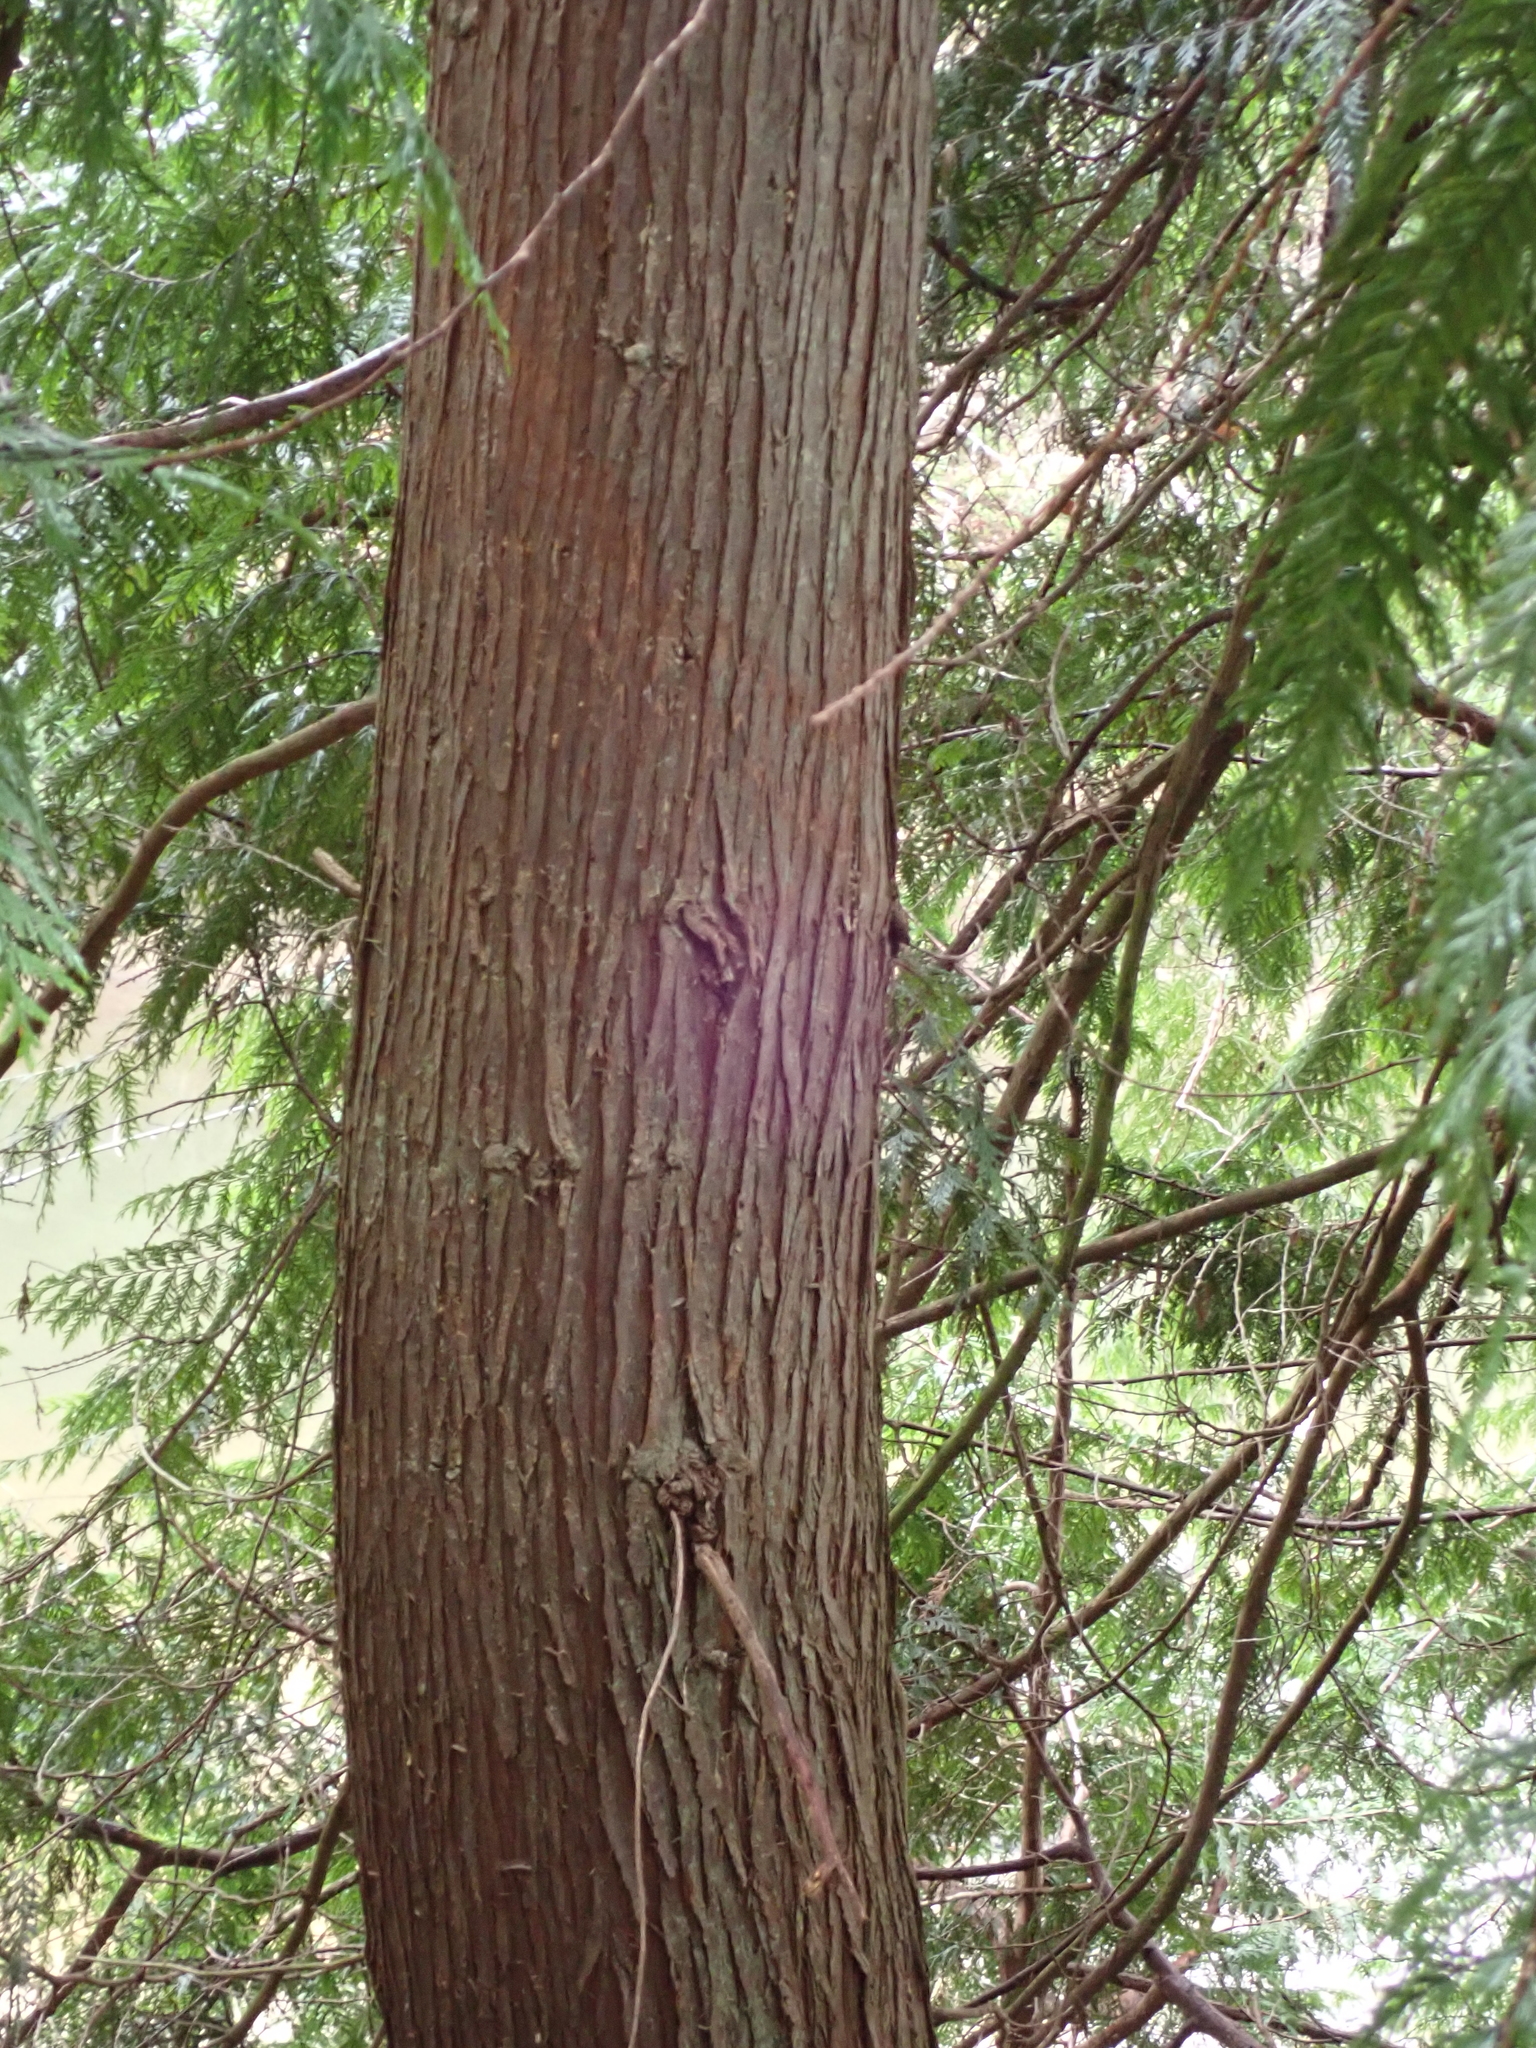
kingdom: Plantae
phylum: Tracheophyta
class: Pinopsida
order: Pinales
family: Cupressaceae
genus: Thuja
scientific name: Thuja plicata
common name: Western red-cedar
